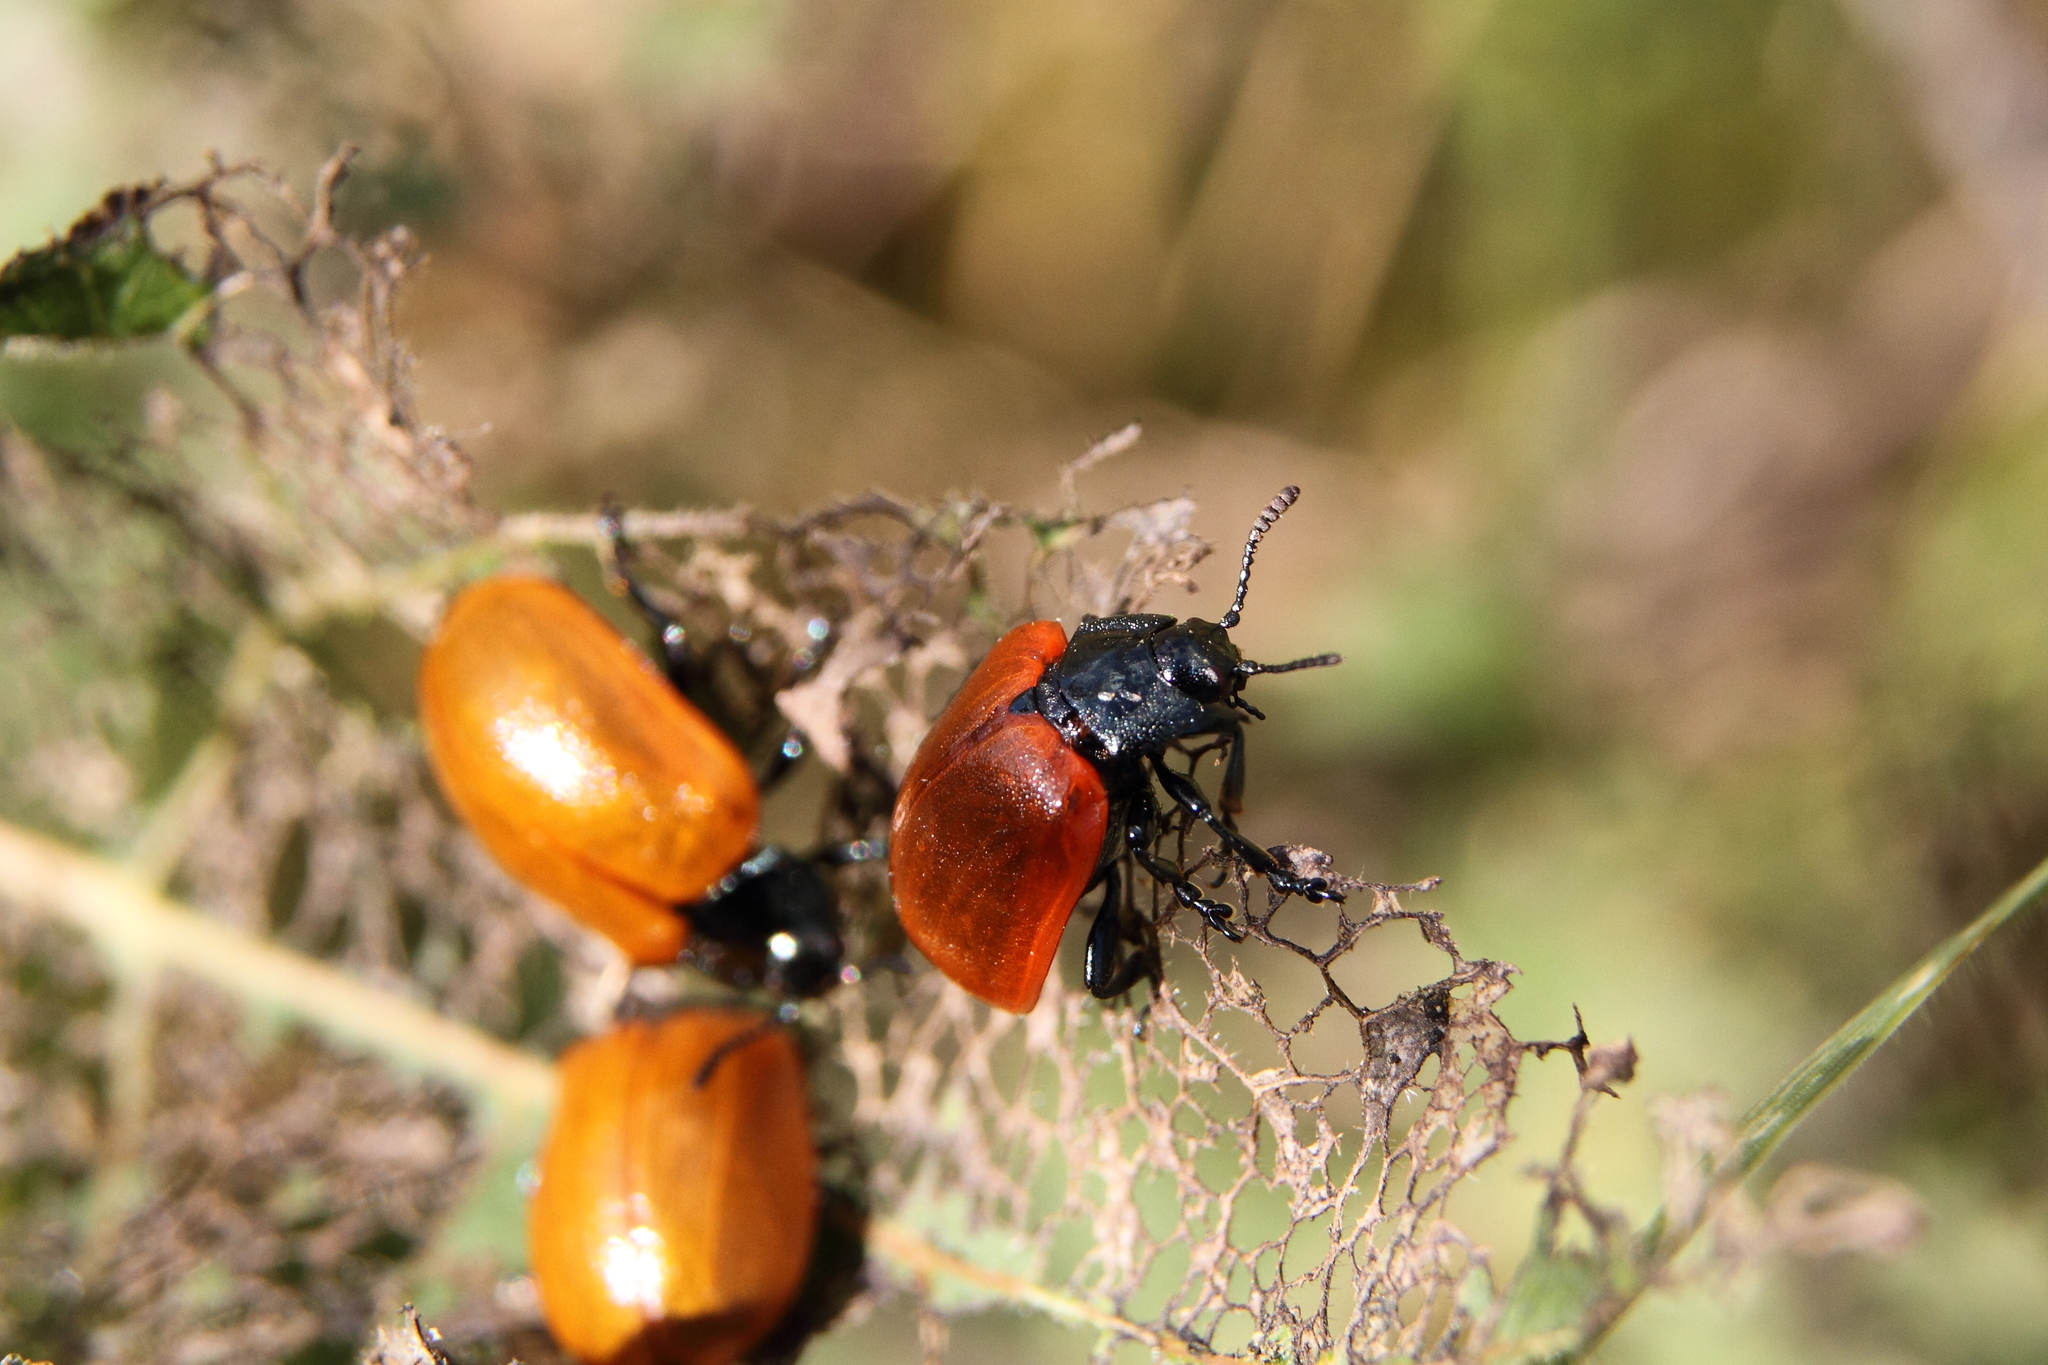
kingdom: Animalia
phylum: Arthropoda
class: Insecta
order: Coleoptera
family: Chrysomelidae
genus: Chrysomela
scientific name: Chrysomela populi
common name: Red poplar leaf beetle
